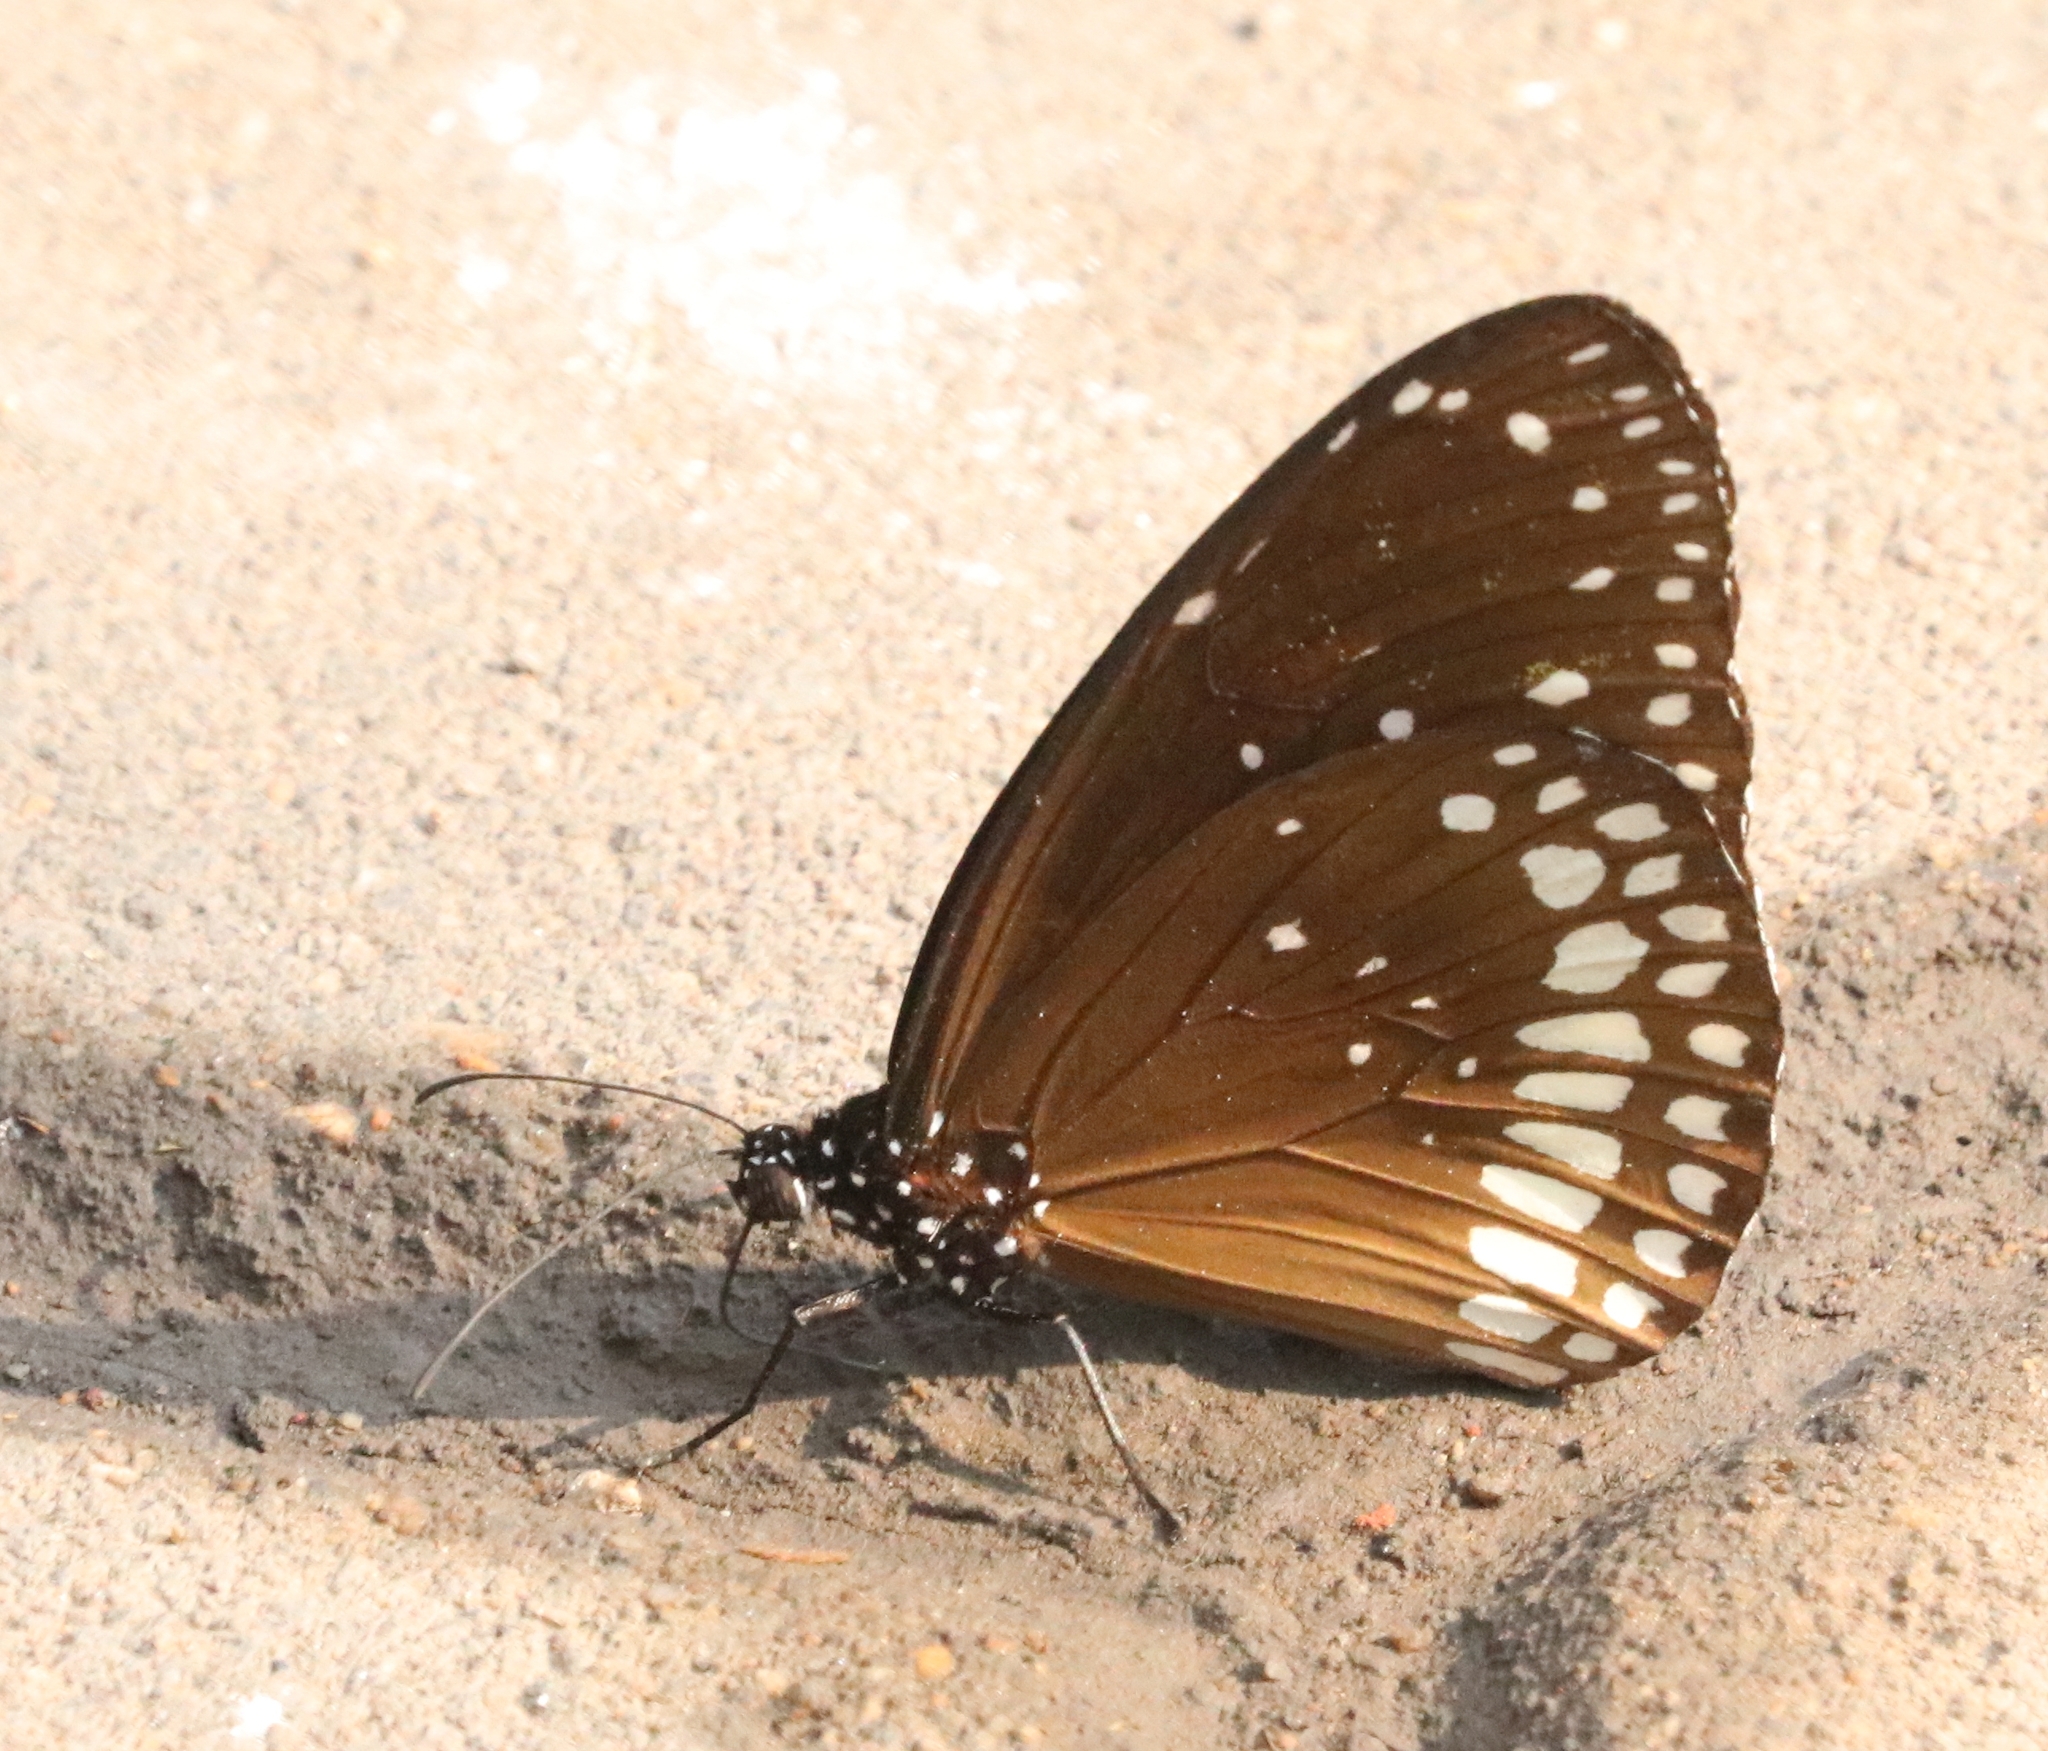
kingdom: Animalia
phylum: Arthropoda
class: Insecta
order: Lepidoptera
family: Nymphalidae
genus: Euploea
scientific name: Euploea core
